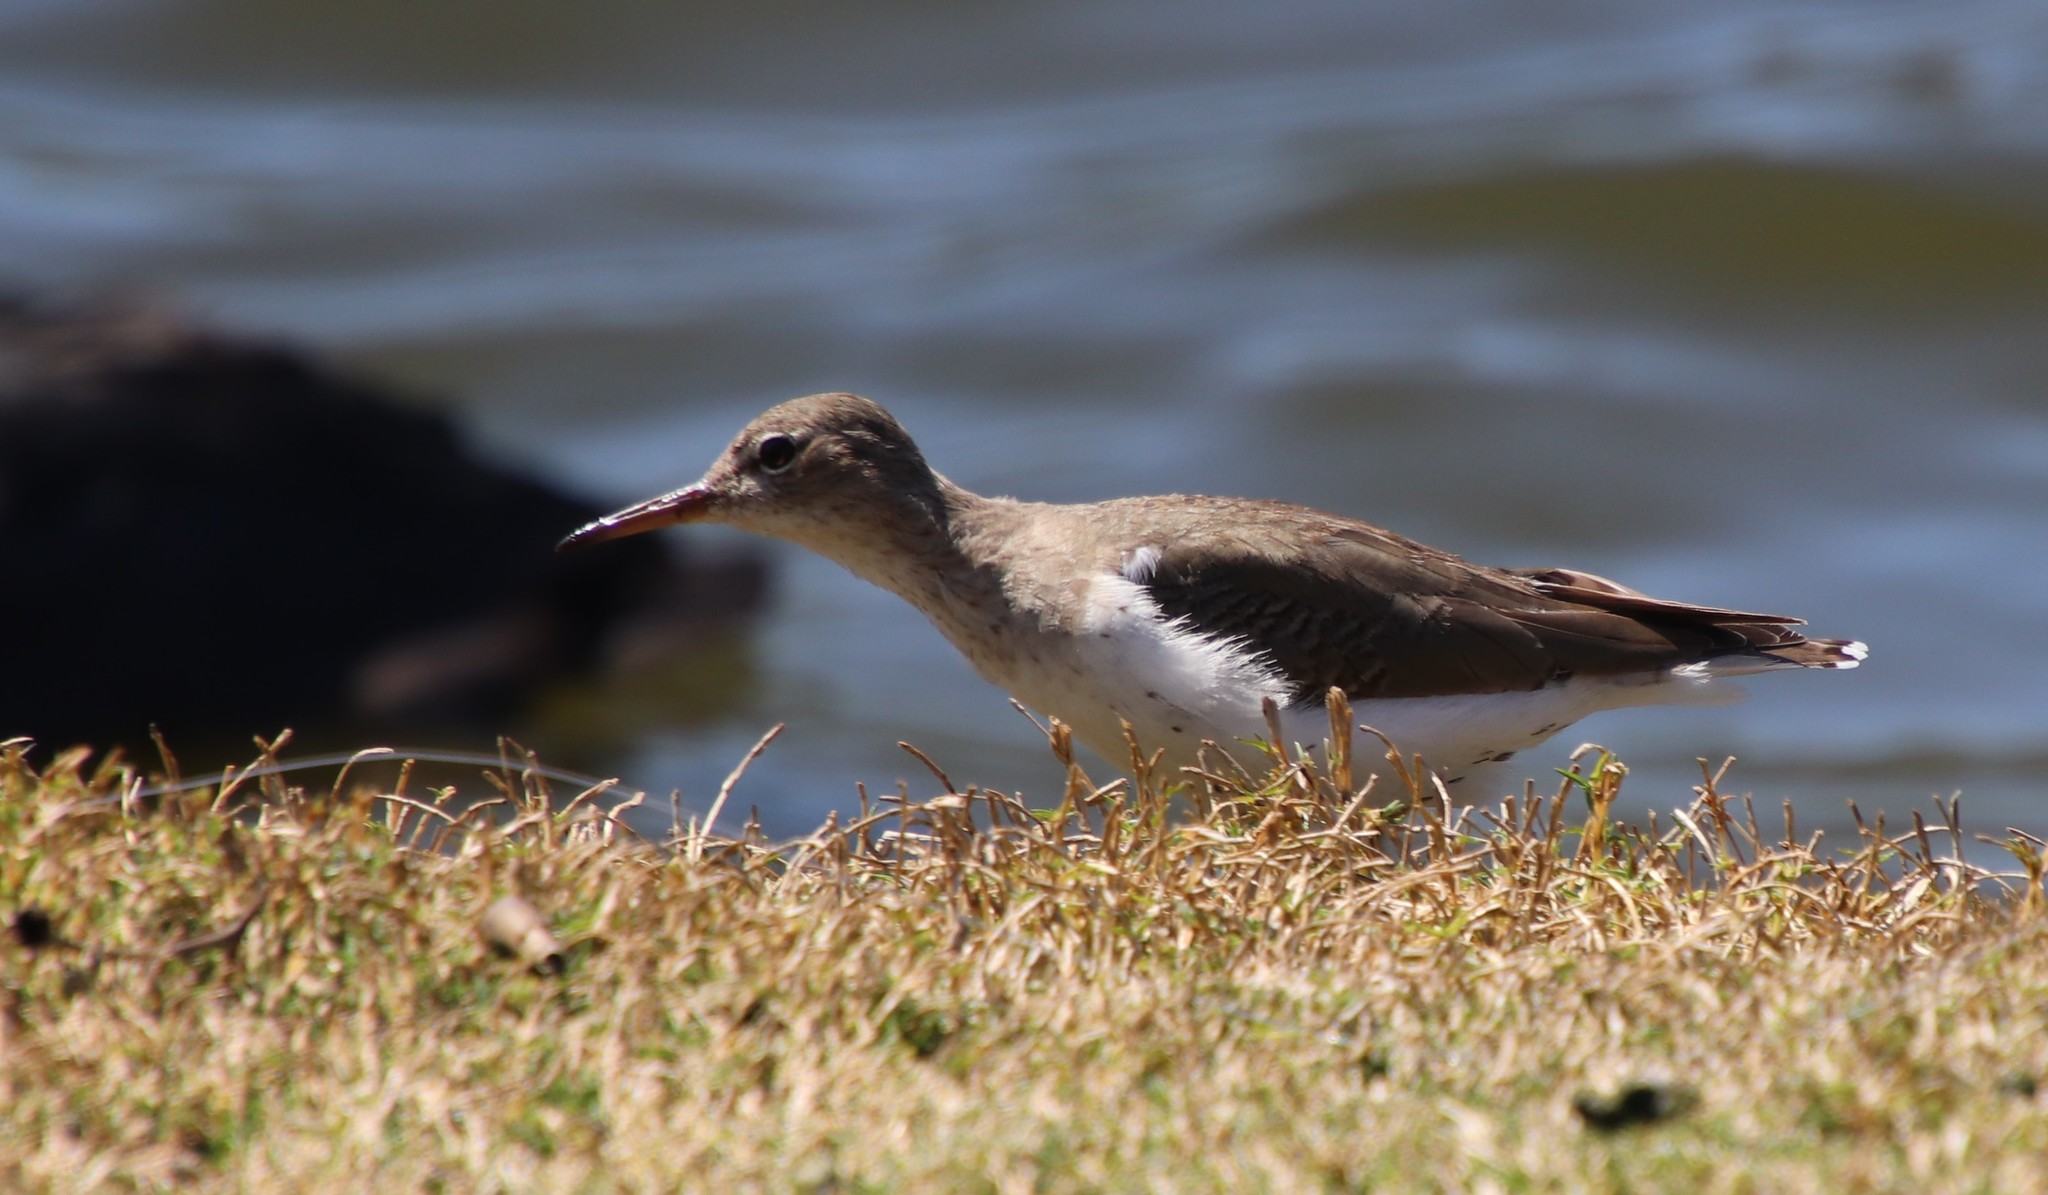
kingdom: Animalia
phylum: Chordata
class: Aves
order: Charadriiformes
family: Scolopacidae
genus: Actitis
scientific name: Actitis macularius
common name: Spotted sandpiper
